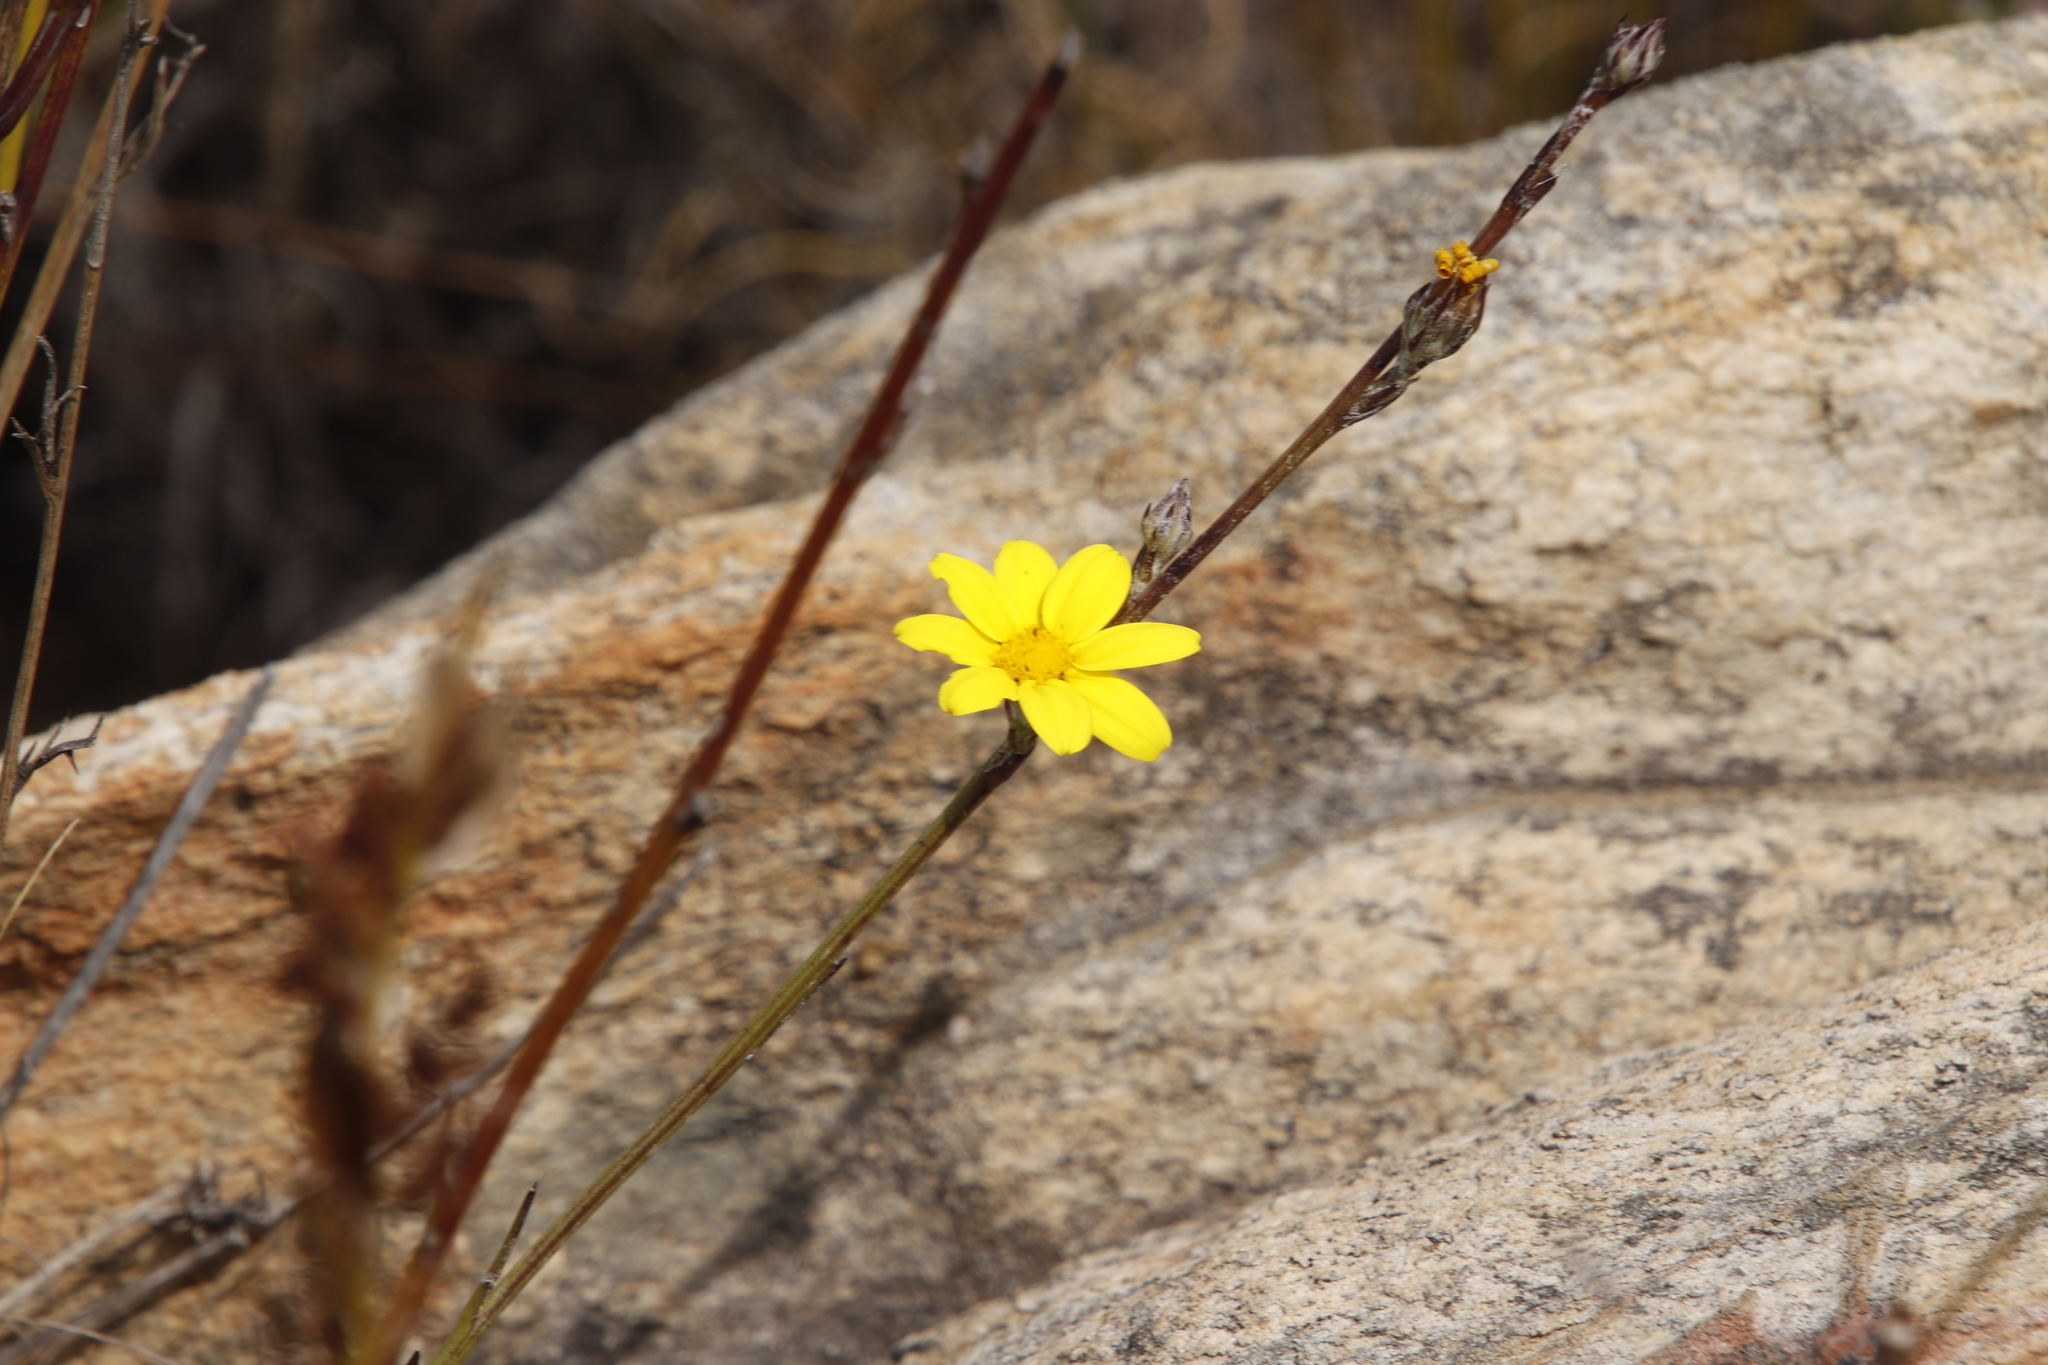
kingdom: Plantae
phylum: Tracheophyta
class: Magnoliopsida
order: Asterales
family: Asteraceae
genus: Osteospermum
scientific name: Osteospermum asperulum
